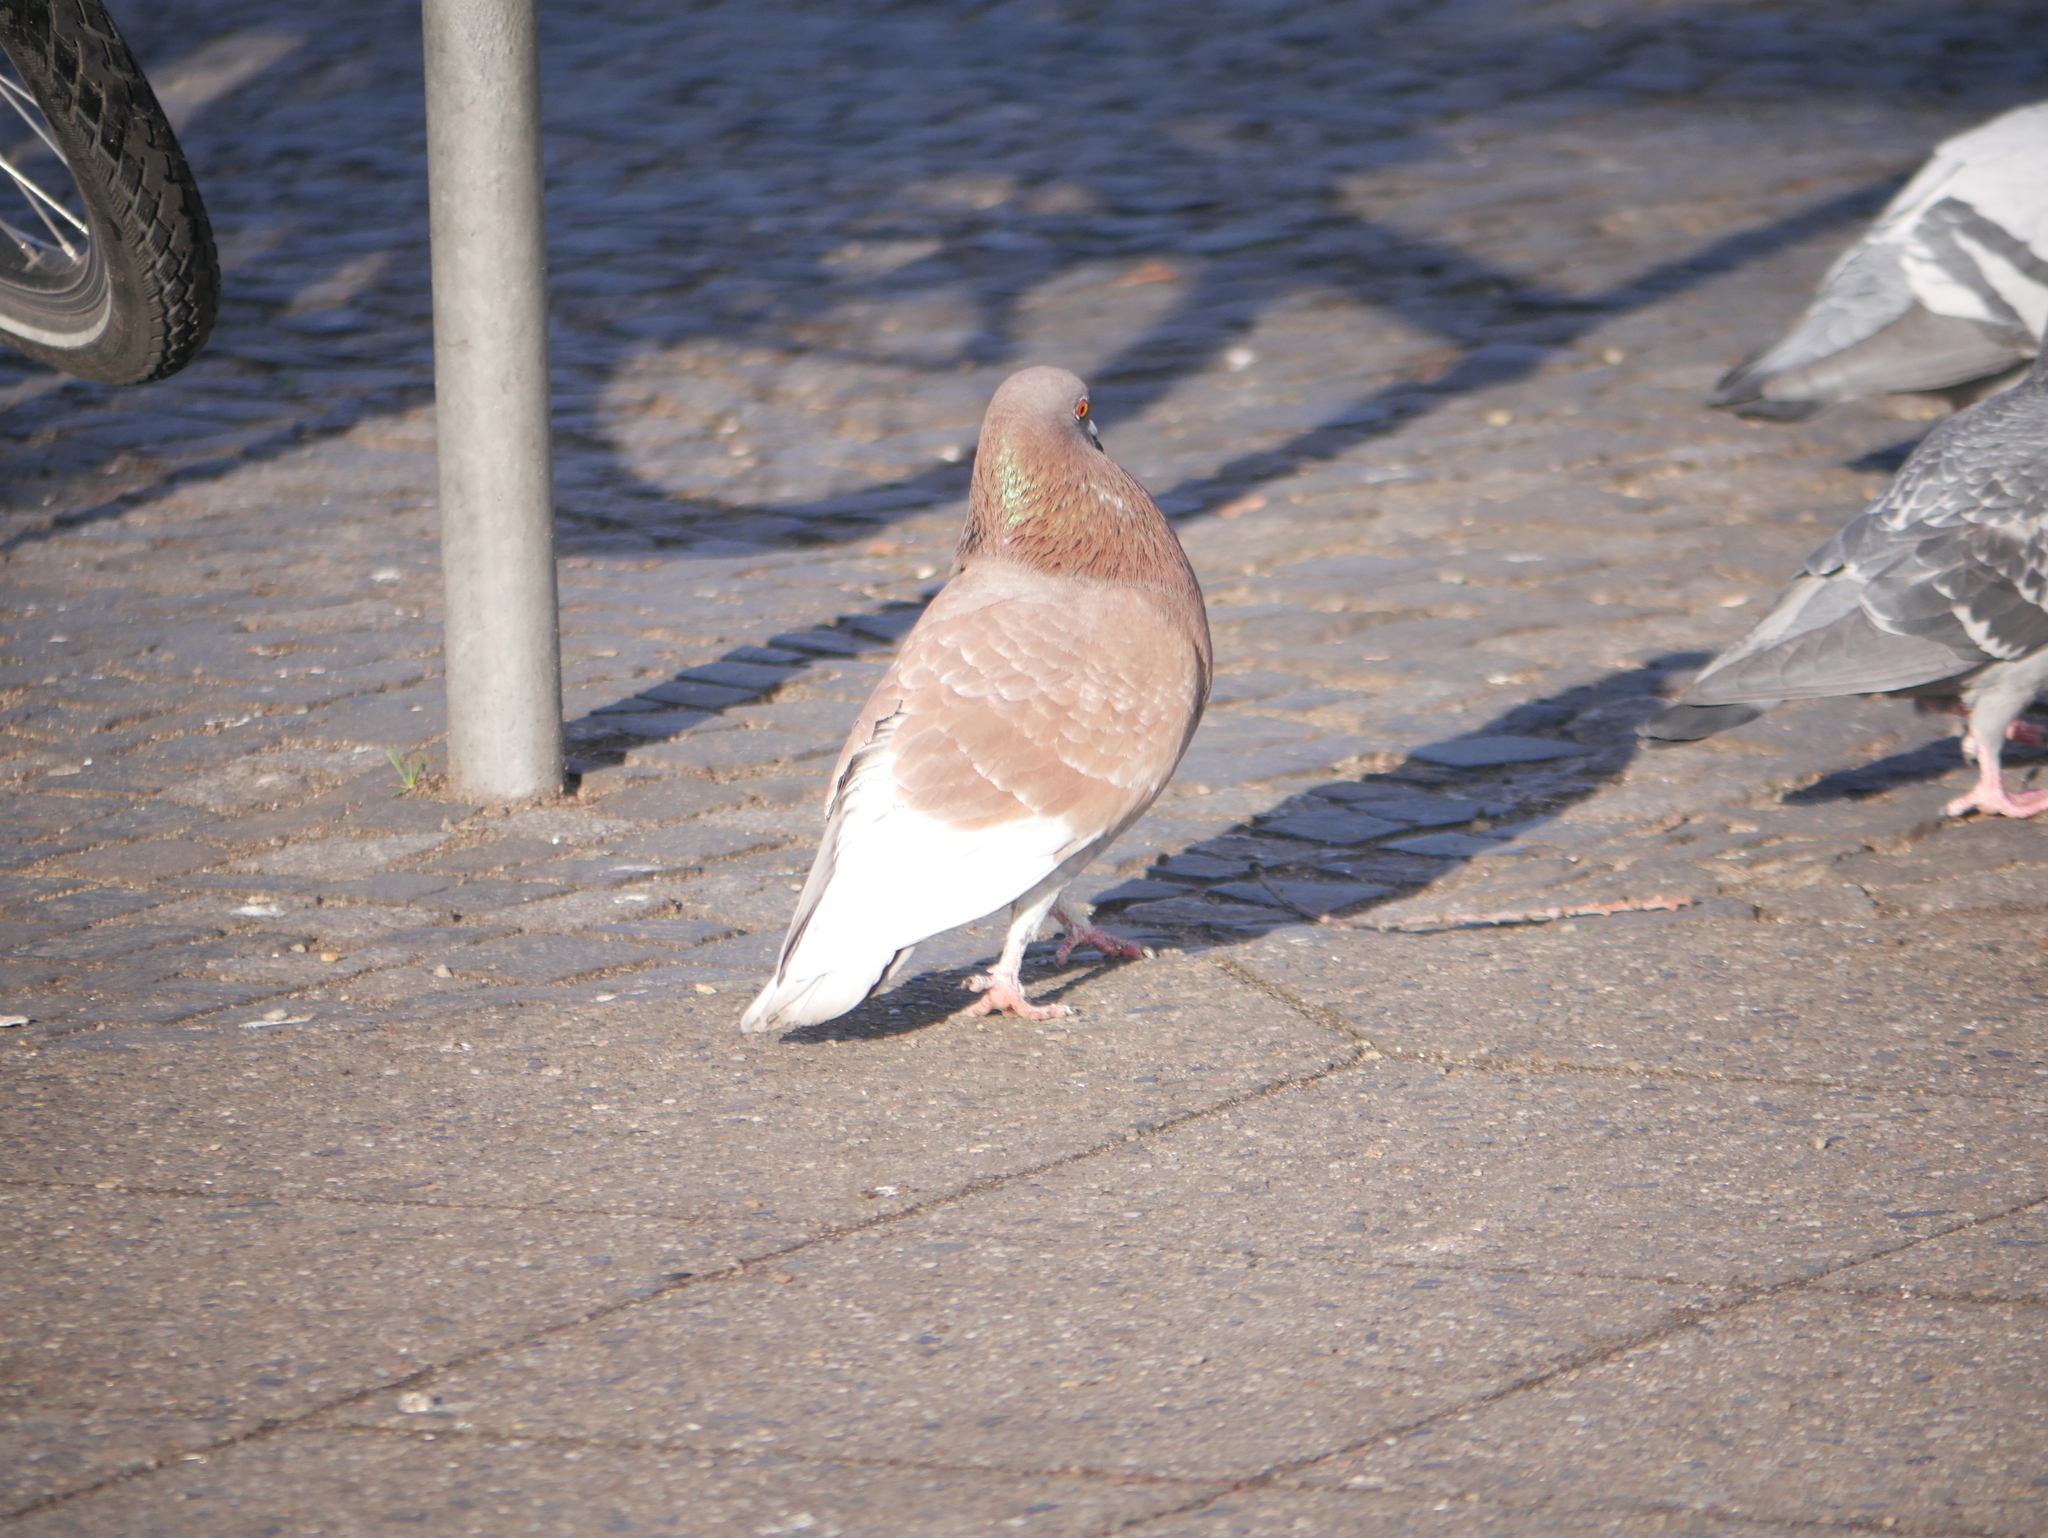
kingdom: Animalia
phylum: Chordata
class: Aves
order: Columbiformes
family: Columbidae
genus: Columba
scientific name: Columba livia
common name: Rock pigeon
